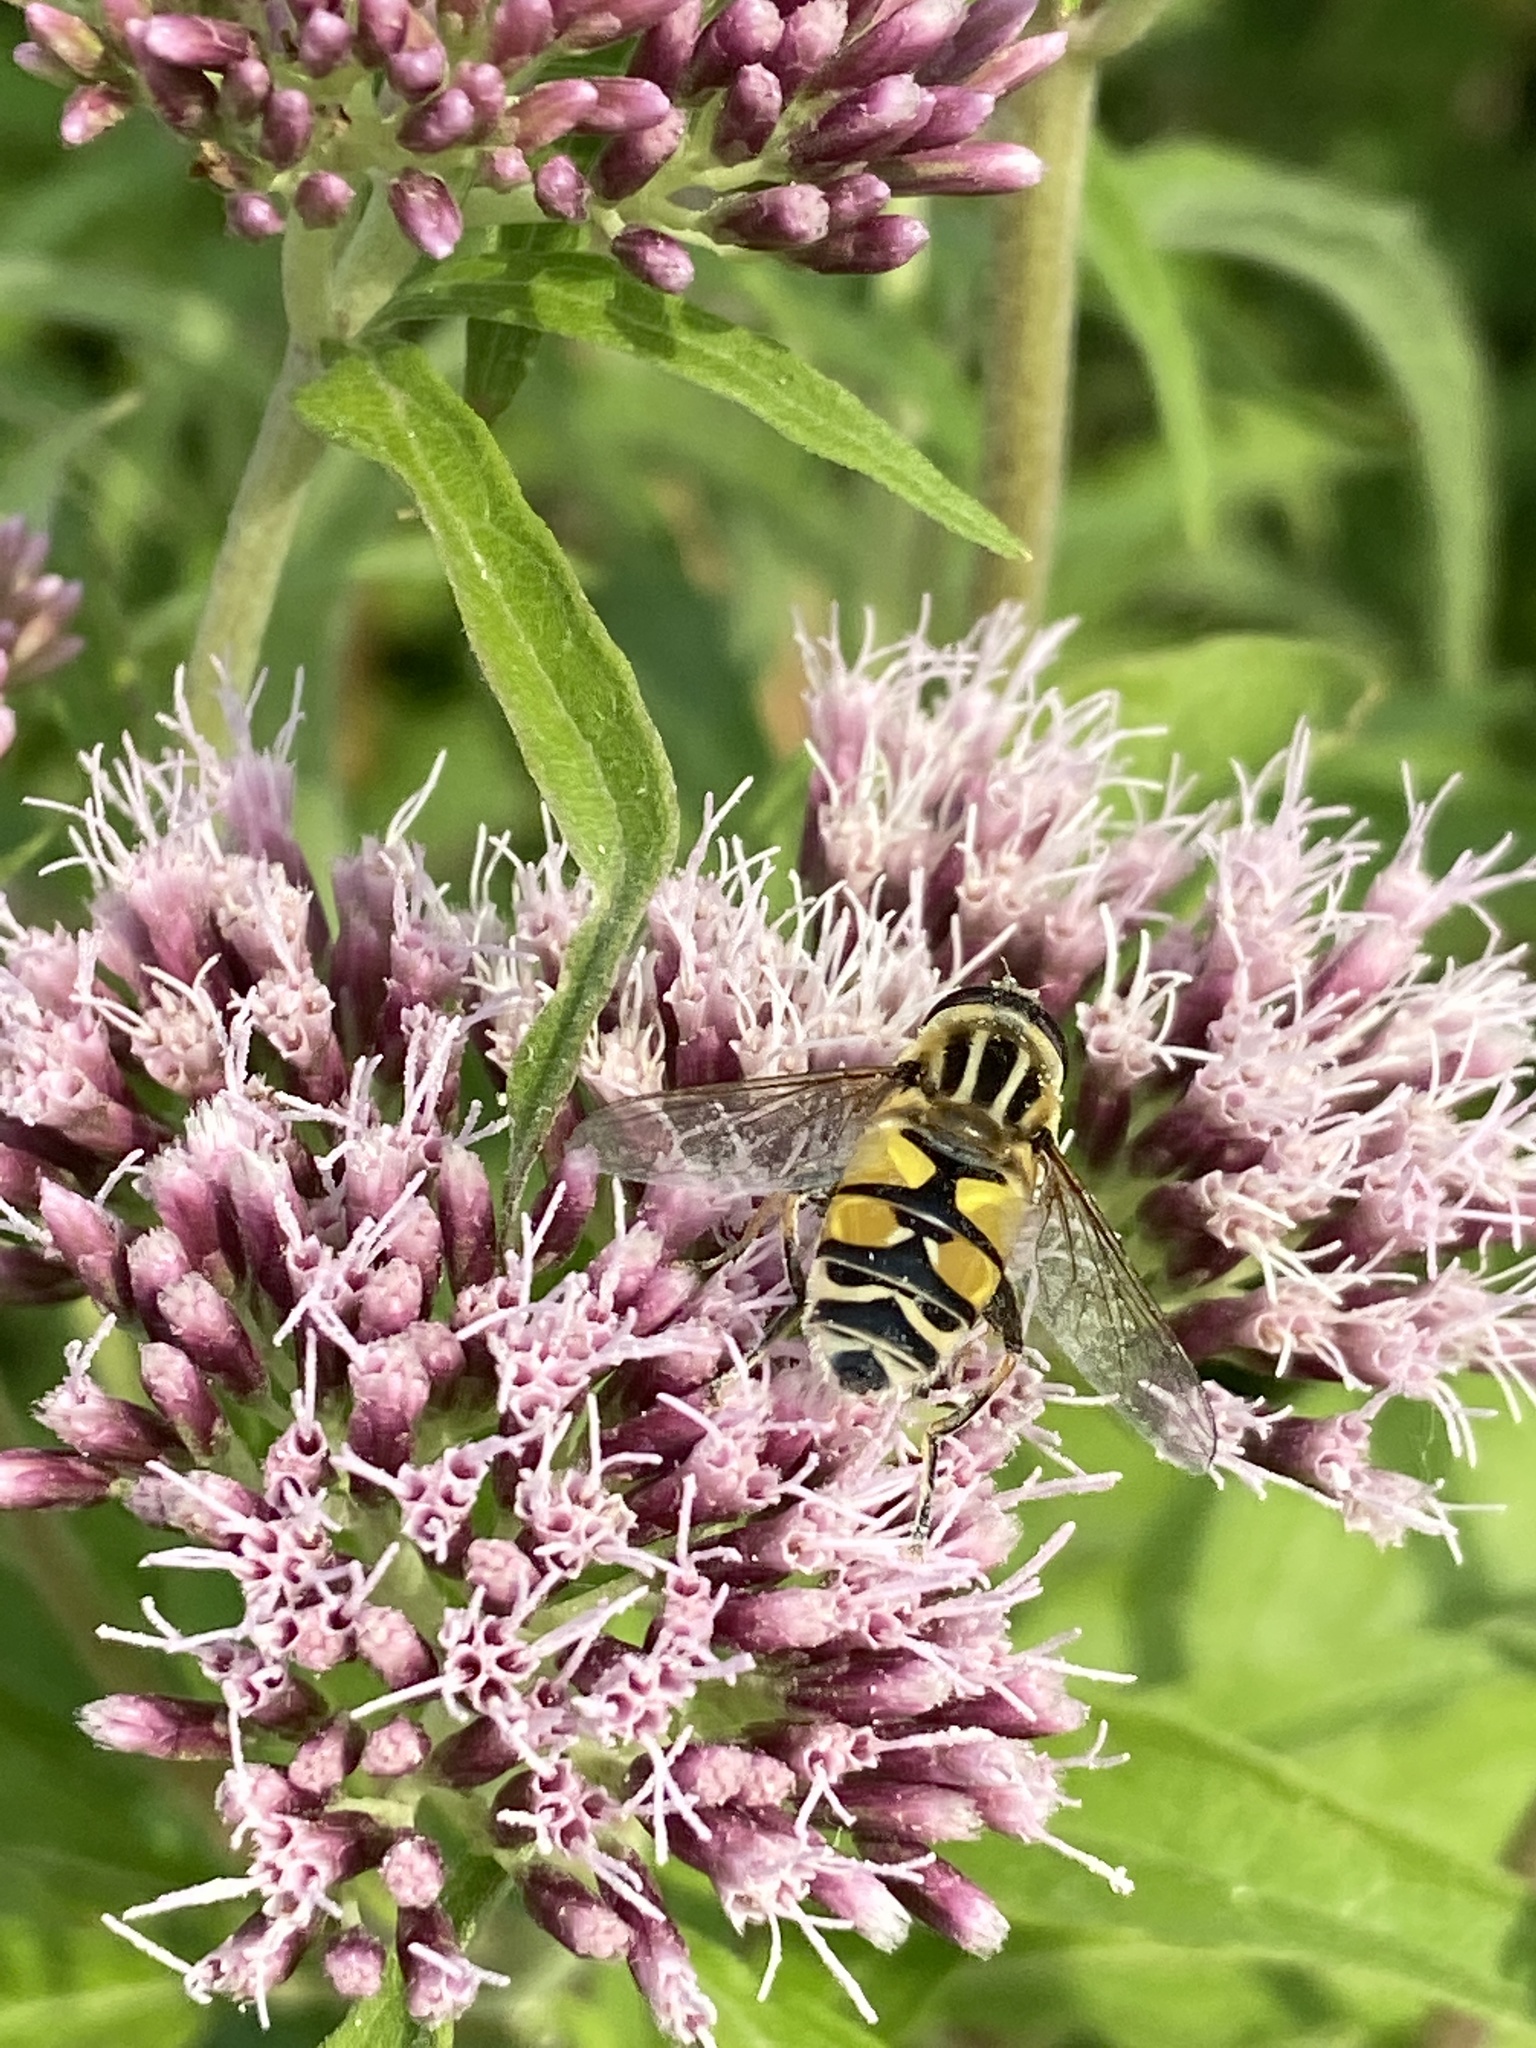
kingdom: Animalia
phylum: Arthropoda
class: Insecta
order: Diptera
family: Syrphidae
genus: Helophilus
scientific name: Helophilus trivittatus
